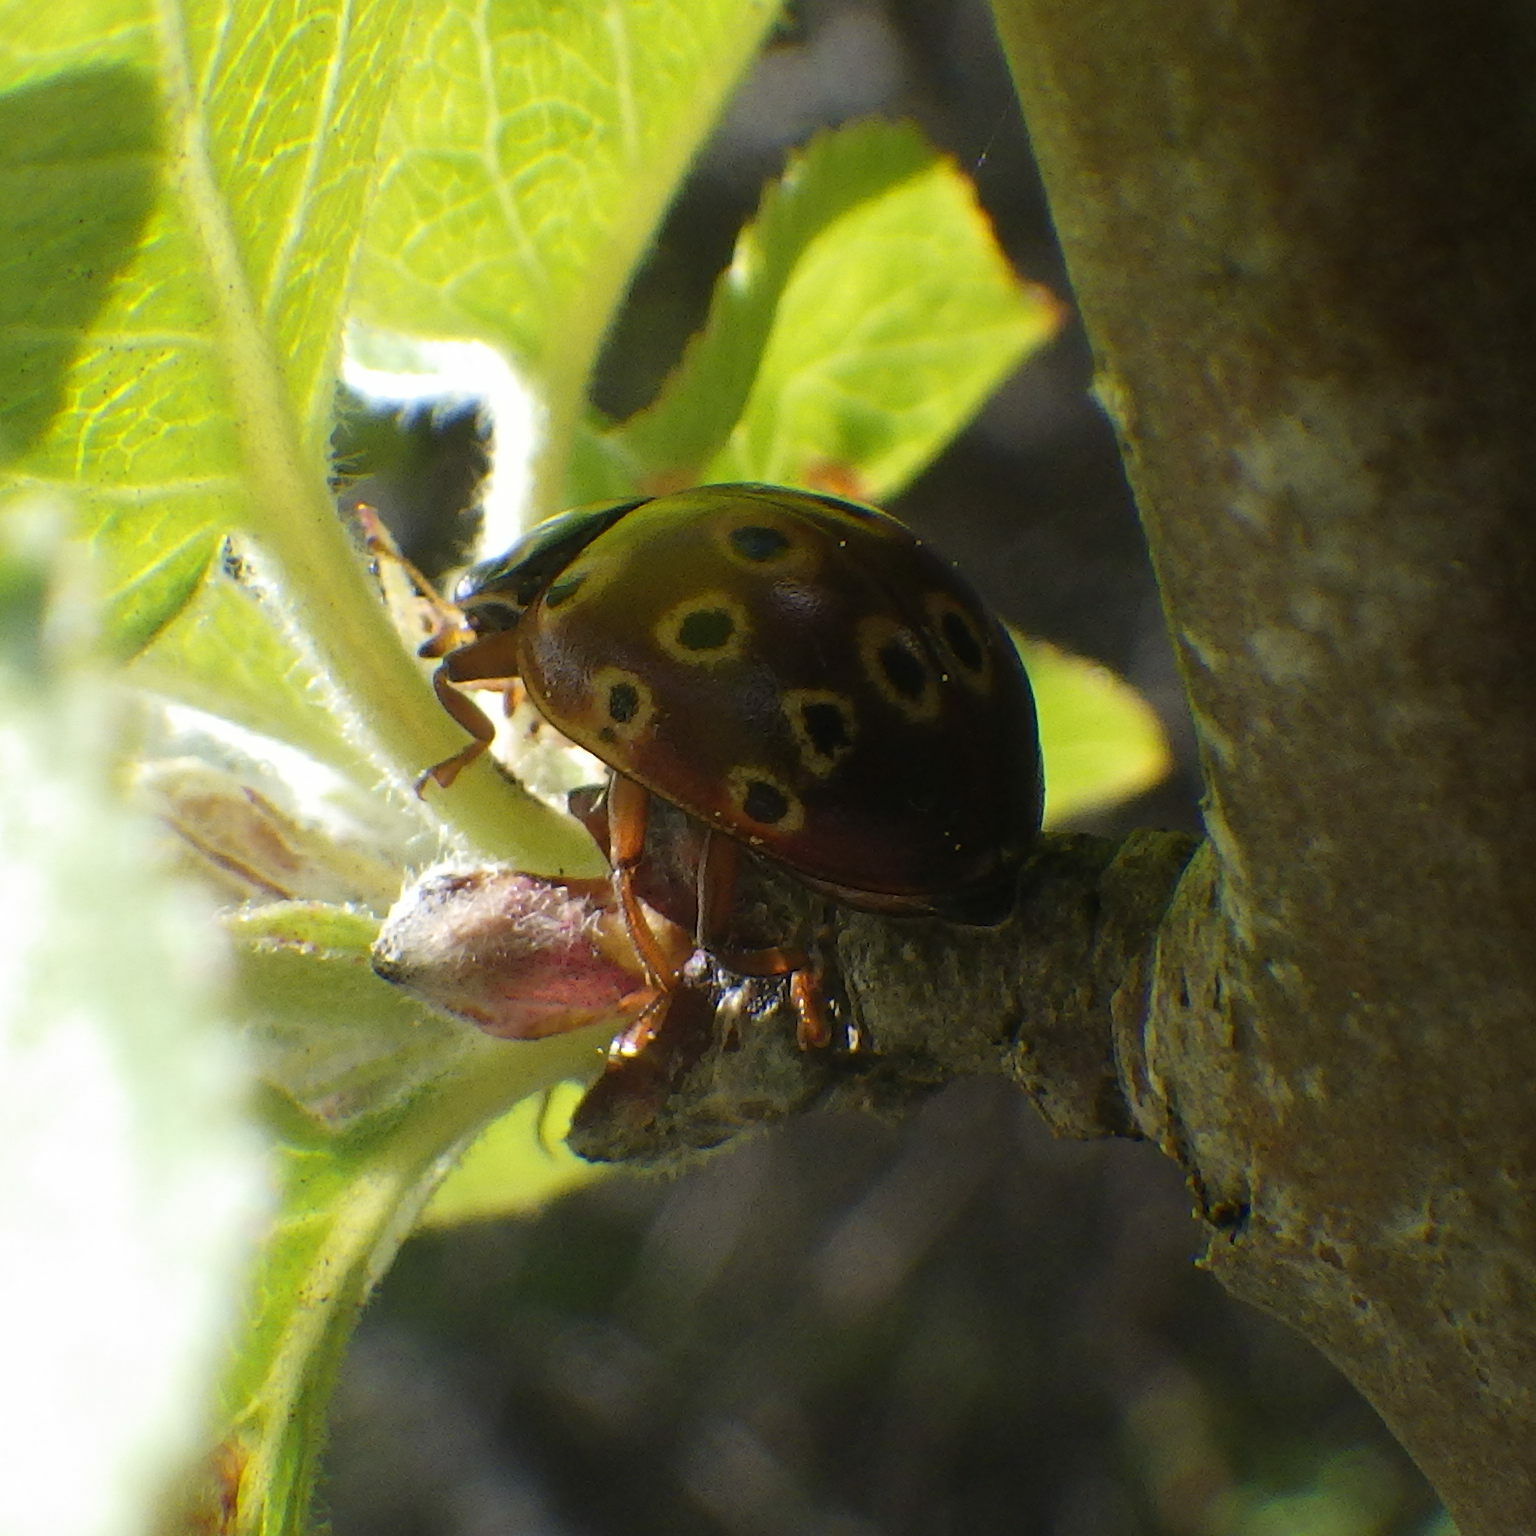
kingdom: Animalia
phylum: Arthropoda
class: Insecta
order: Coleoptera
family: Coccinellidae
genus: Anatis
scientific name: Anatis mali
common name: Eye-spotted lady beetle
